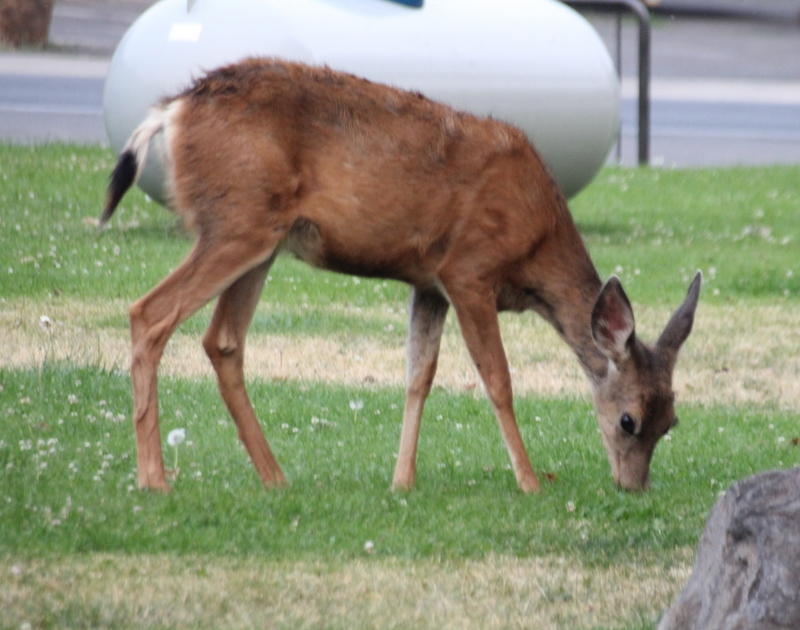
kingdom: Animalia
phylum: Chordata
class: Mammalia
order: Artiodactyla
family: Cervidae
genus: Odocoileus
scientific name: Odocoileus hemionus
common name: Mule deer
